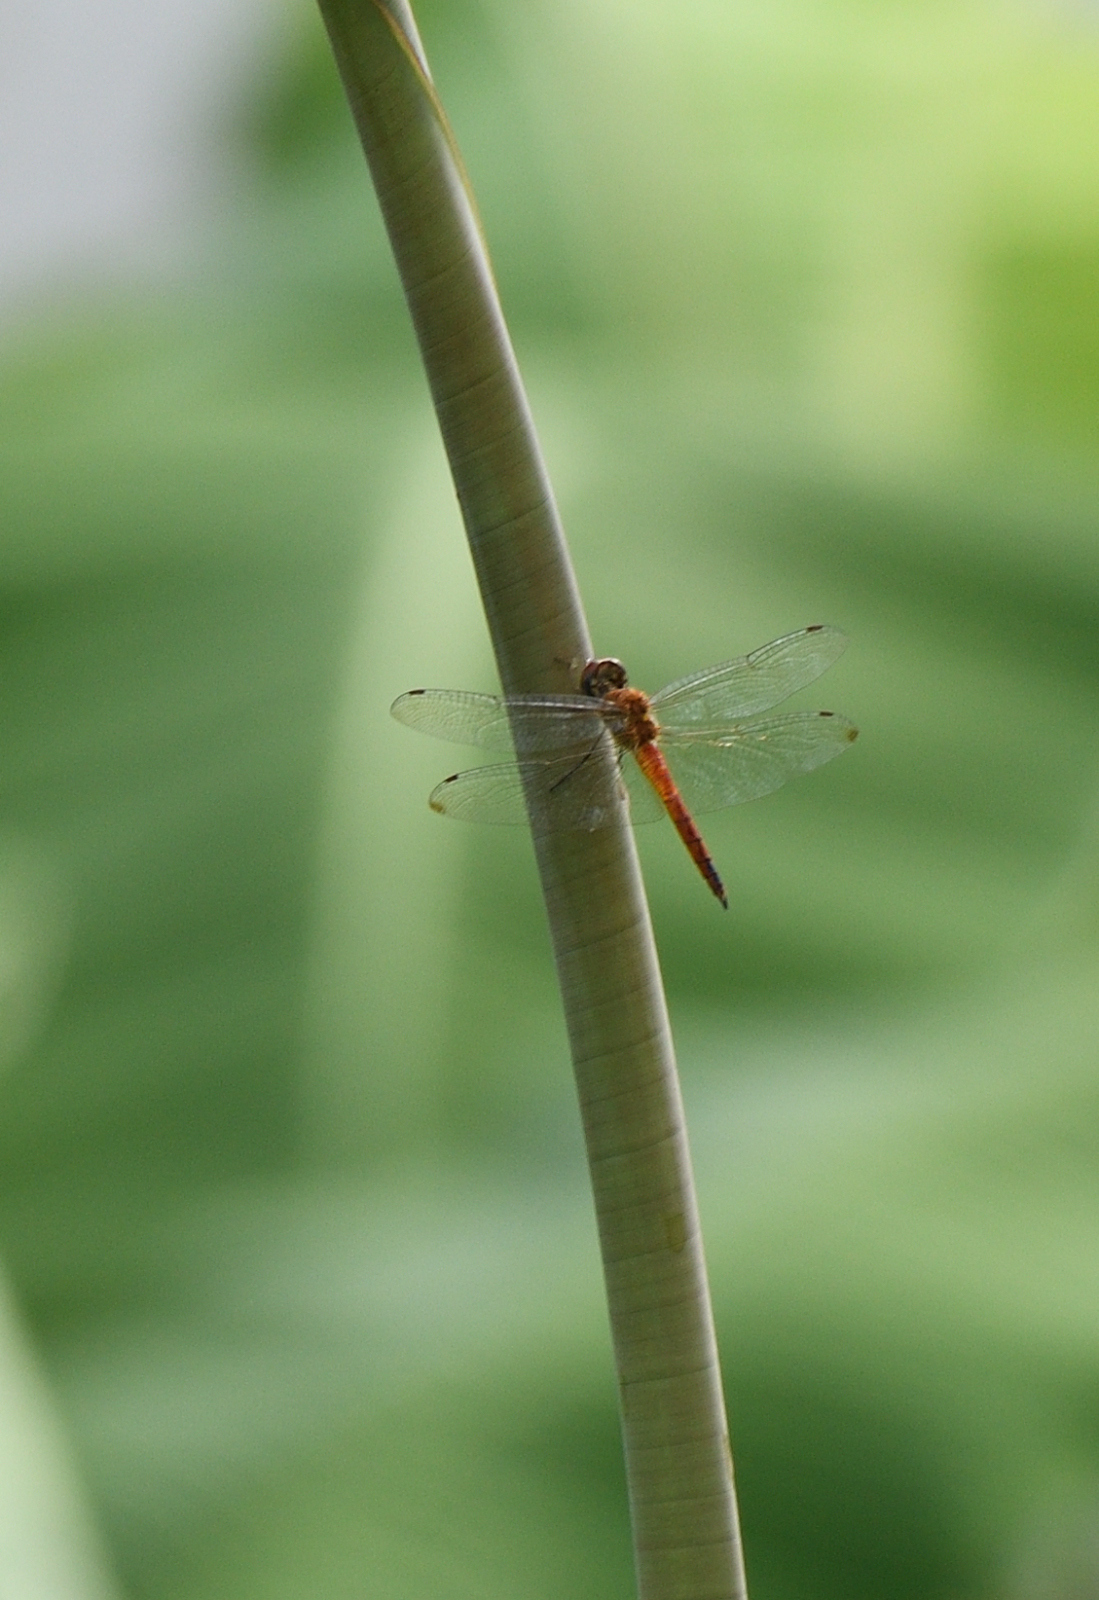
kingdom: Animalia
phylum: Arthropoda
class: Insecta
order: Odonata
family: Libellulidae
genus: Pantala
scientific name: Pantala flavescens
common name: Wandering glider
